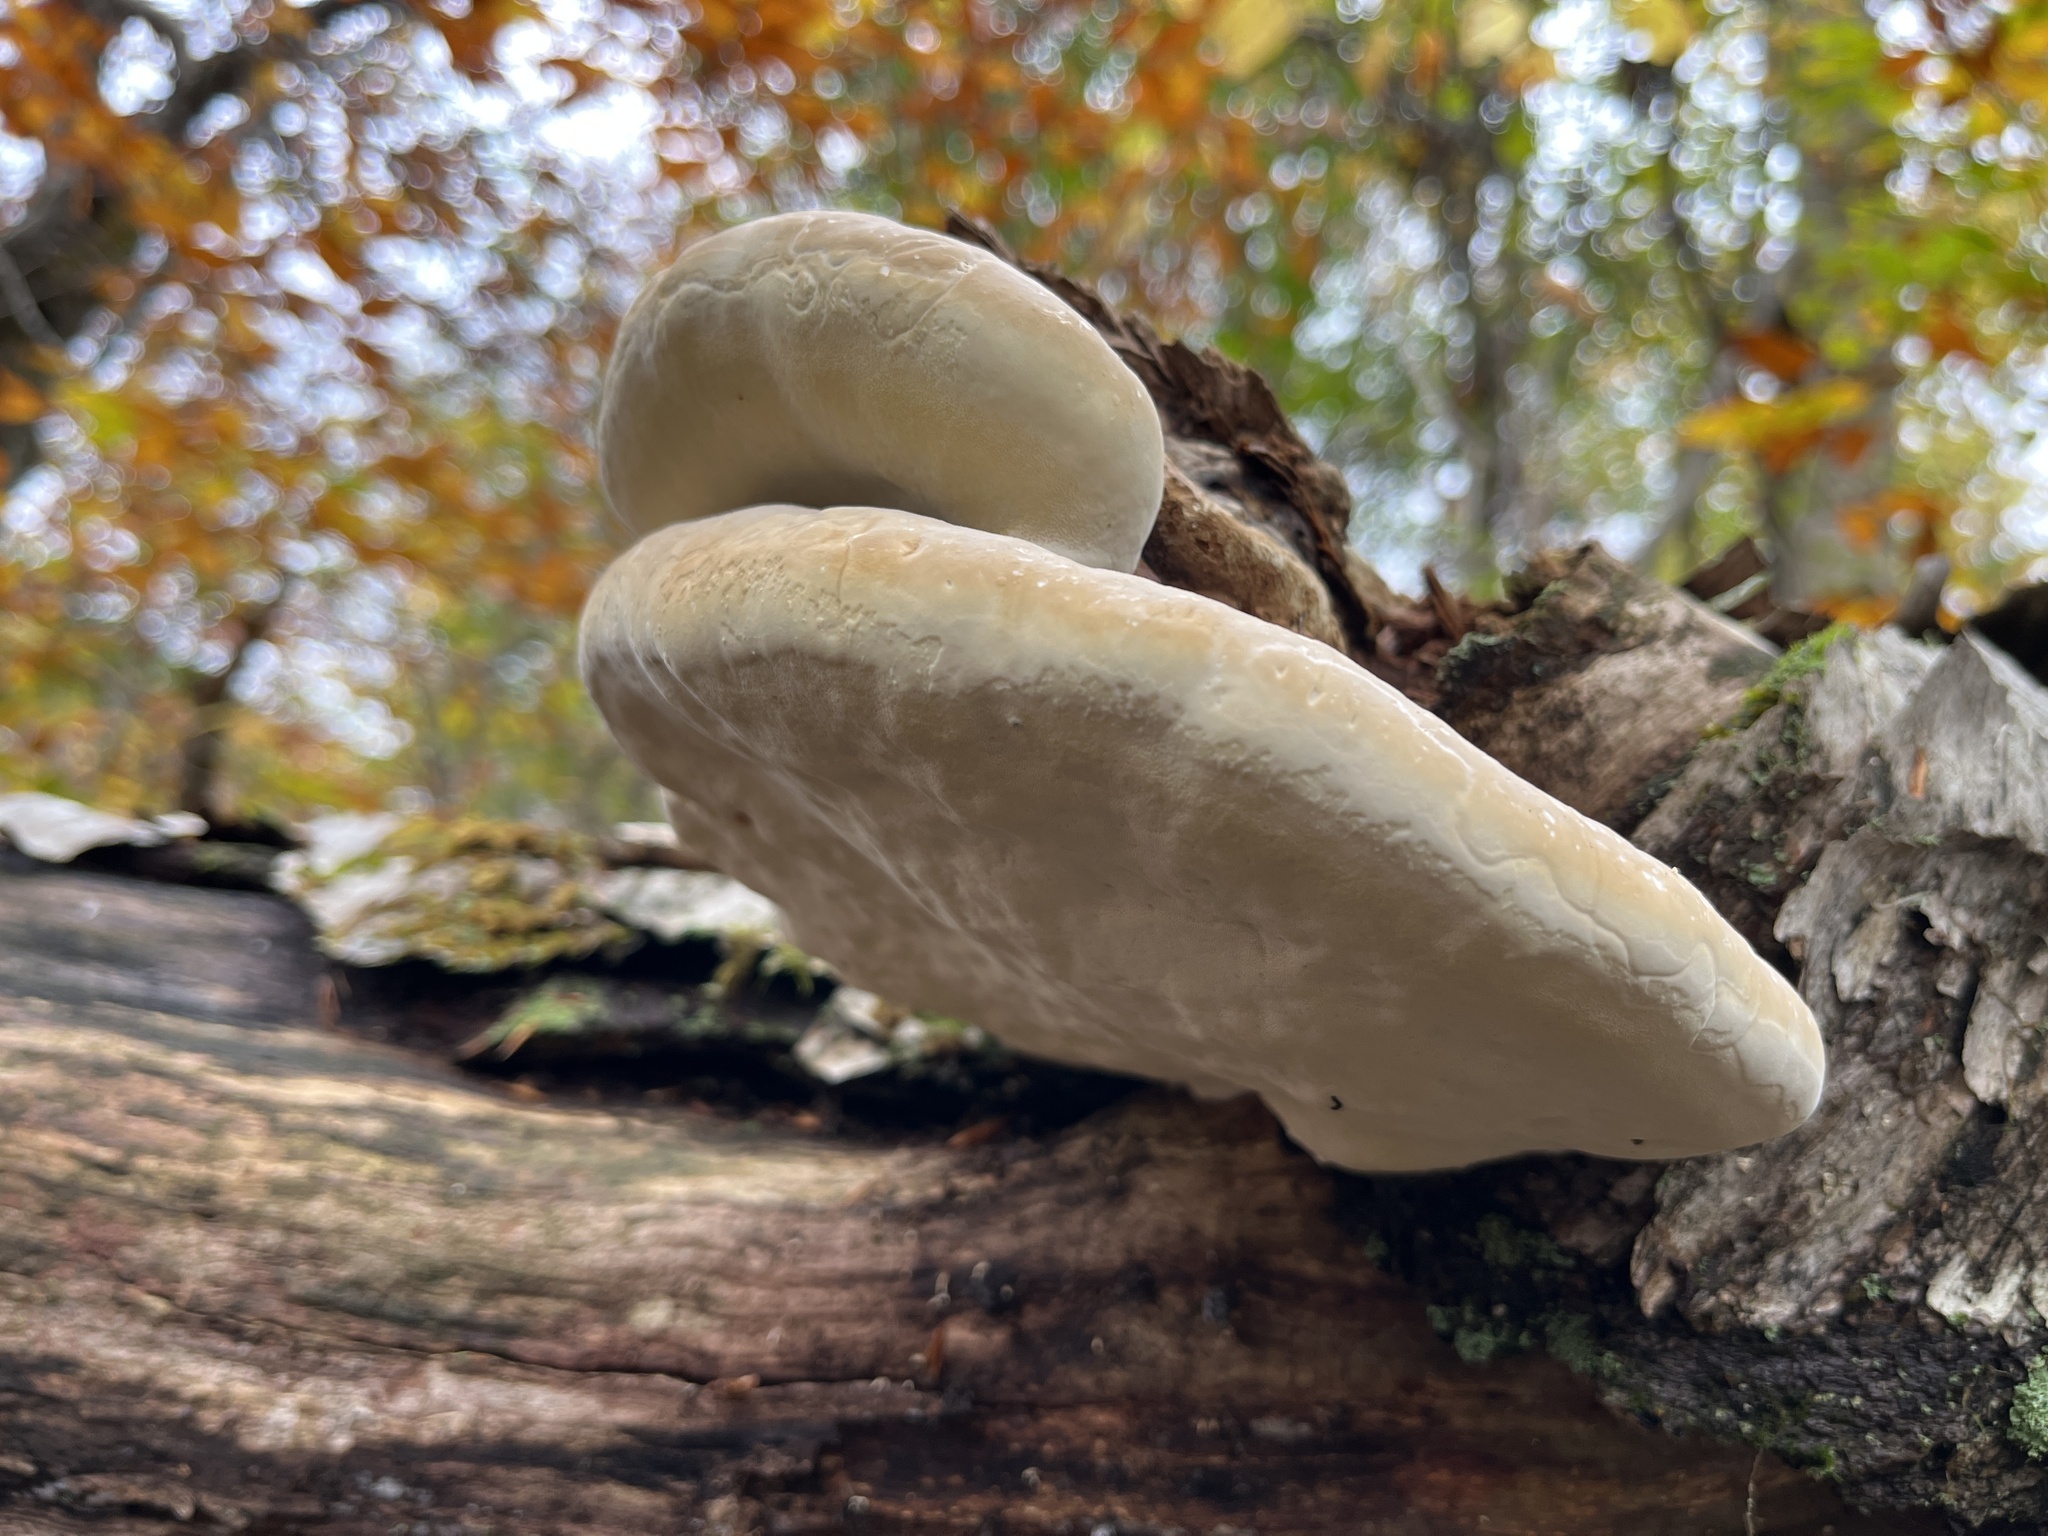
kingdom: Fungi
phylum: Basidiomycota
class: Agaricomycetes
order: Polyporales
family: Fomitopsidaceae
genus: Fomitopsis
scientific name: Fomitopsis ochracea
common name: American brown fomitopsis
